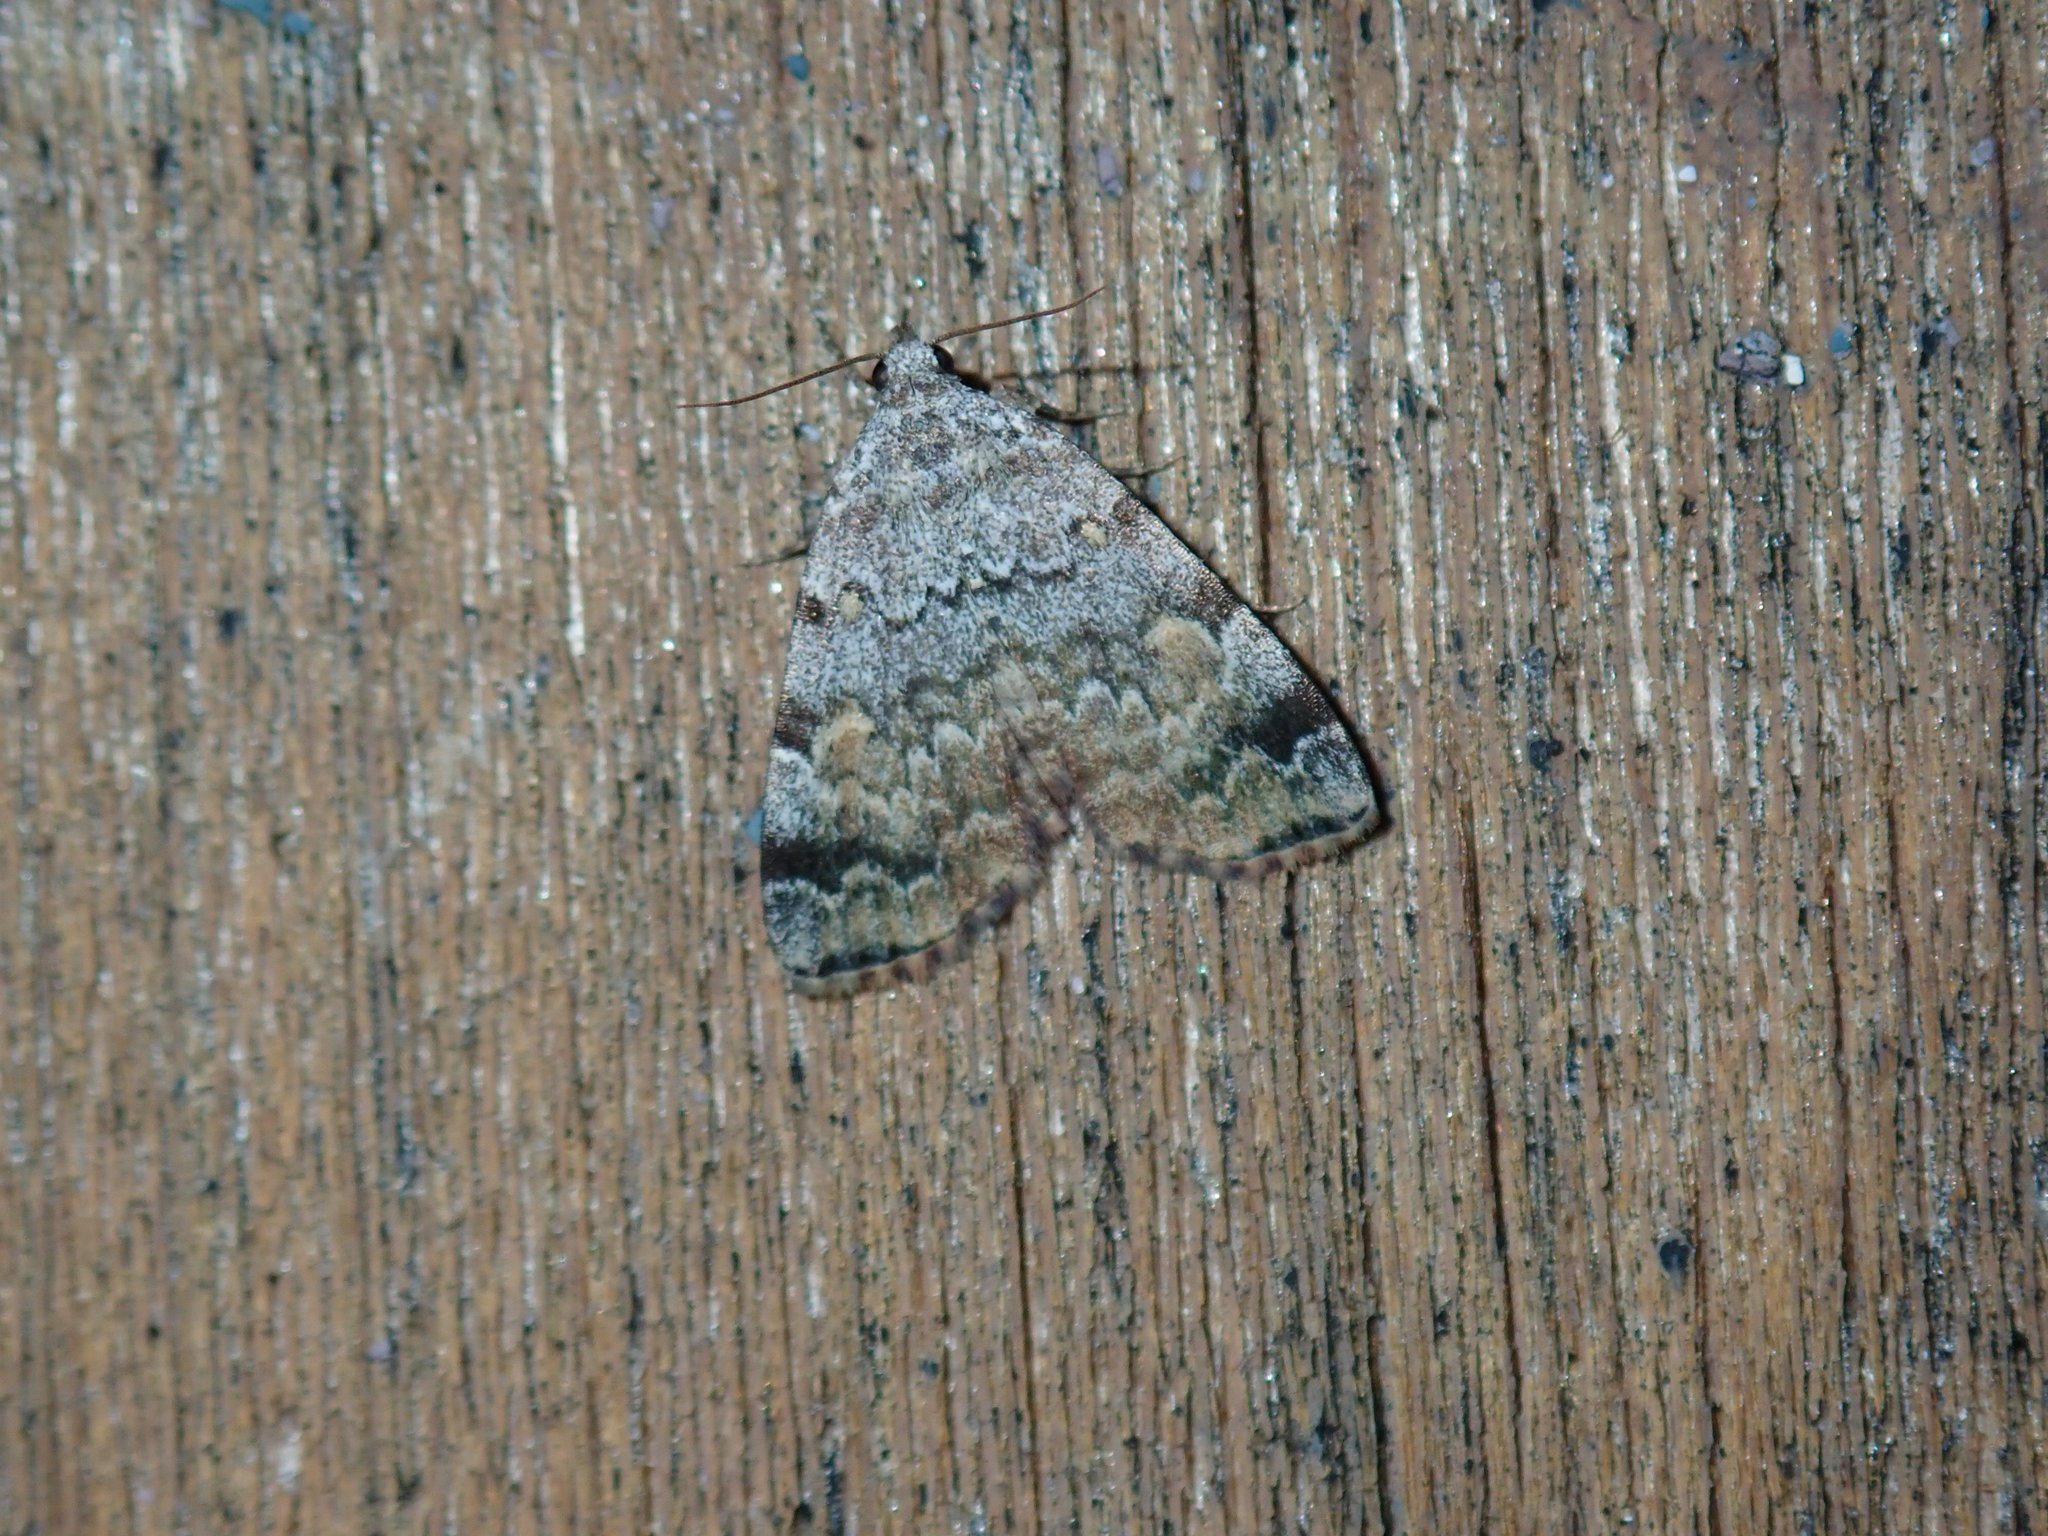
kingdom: Animalia
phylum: Arthropoda
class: Insecta
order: Lepidoptera
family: Erebidae
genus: Idia
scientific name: Idia americalis
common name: American idia moth
